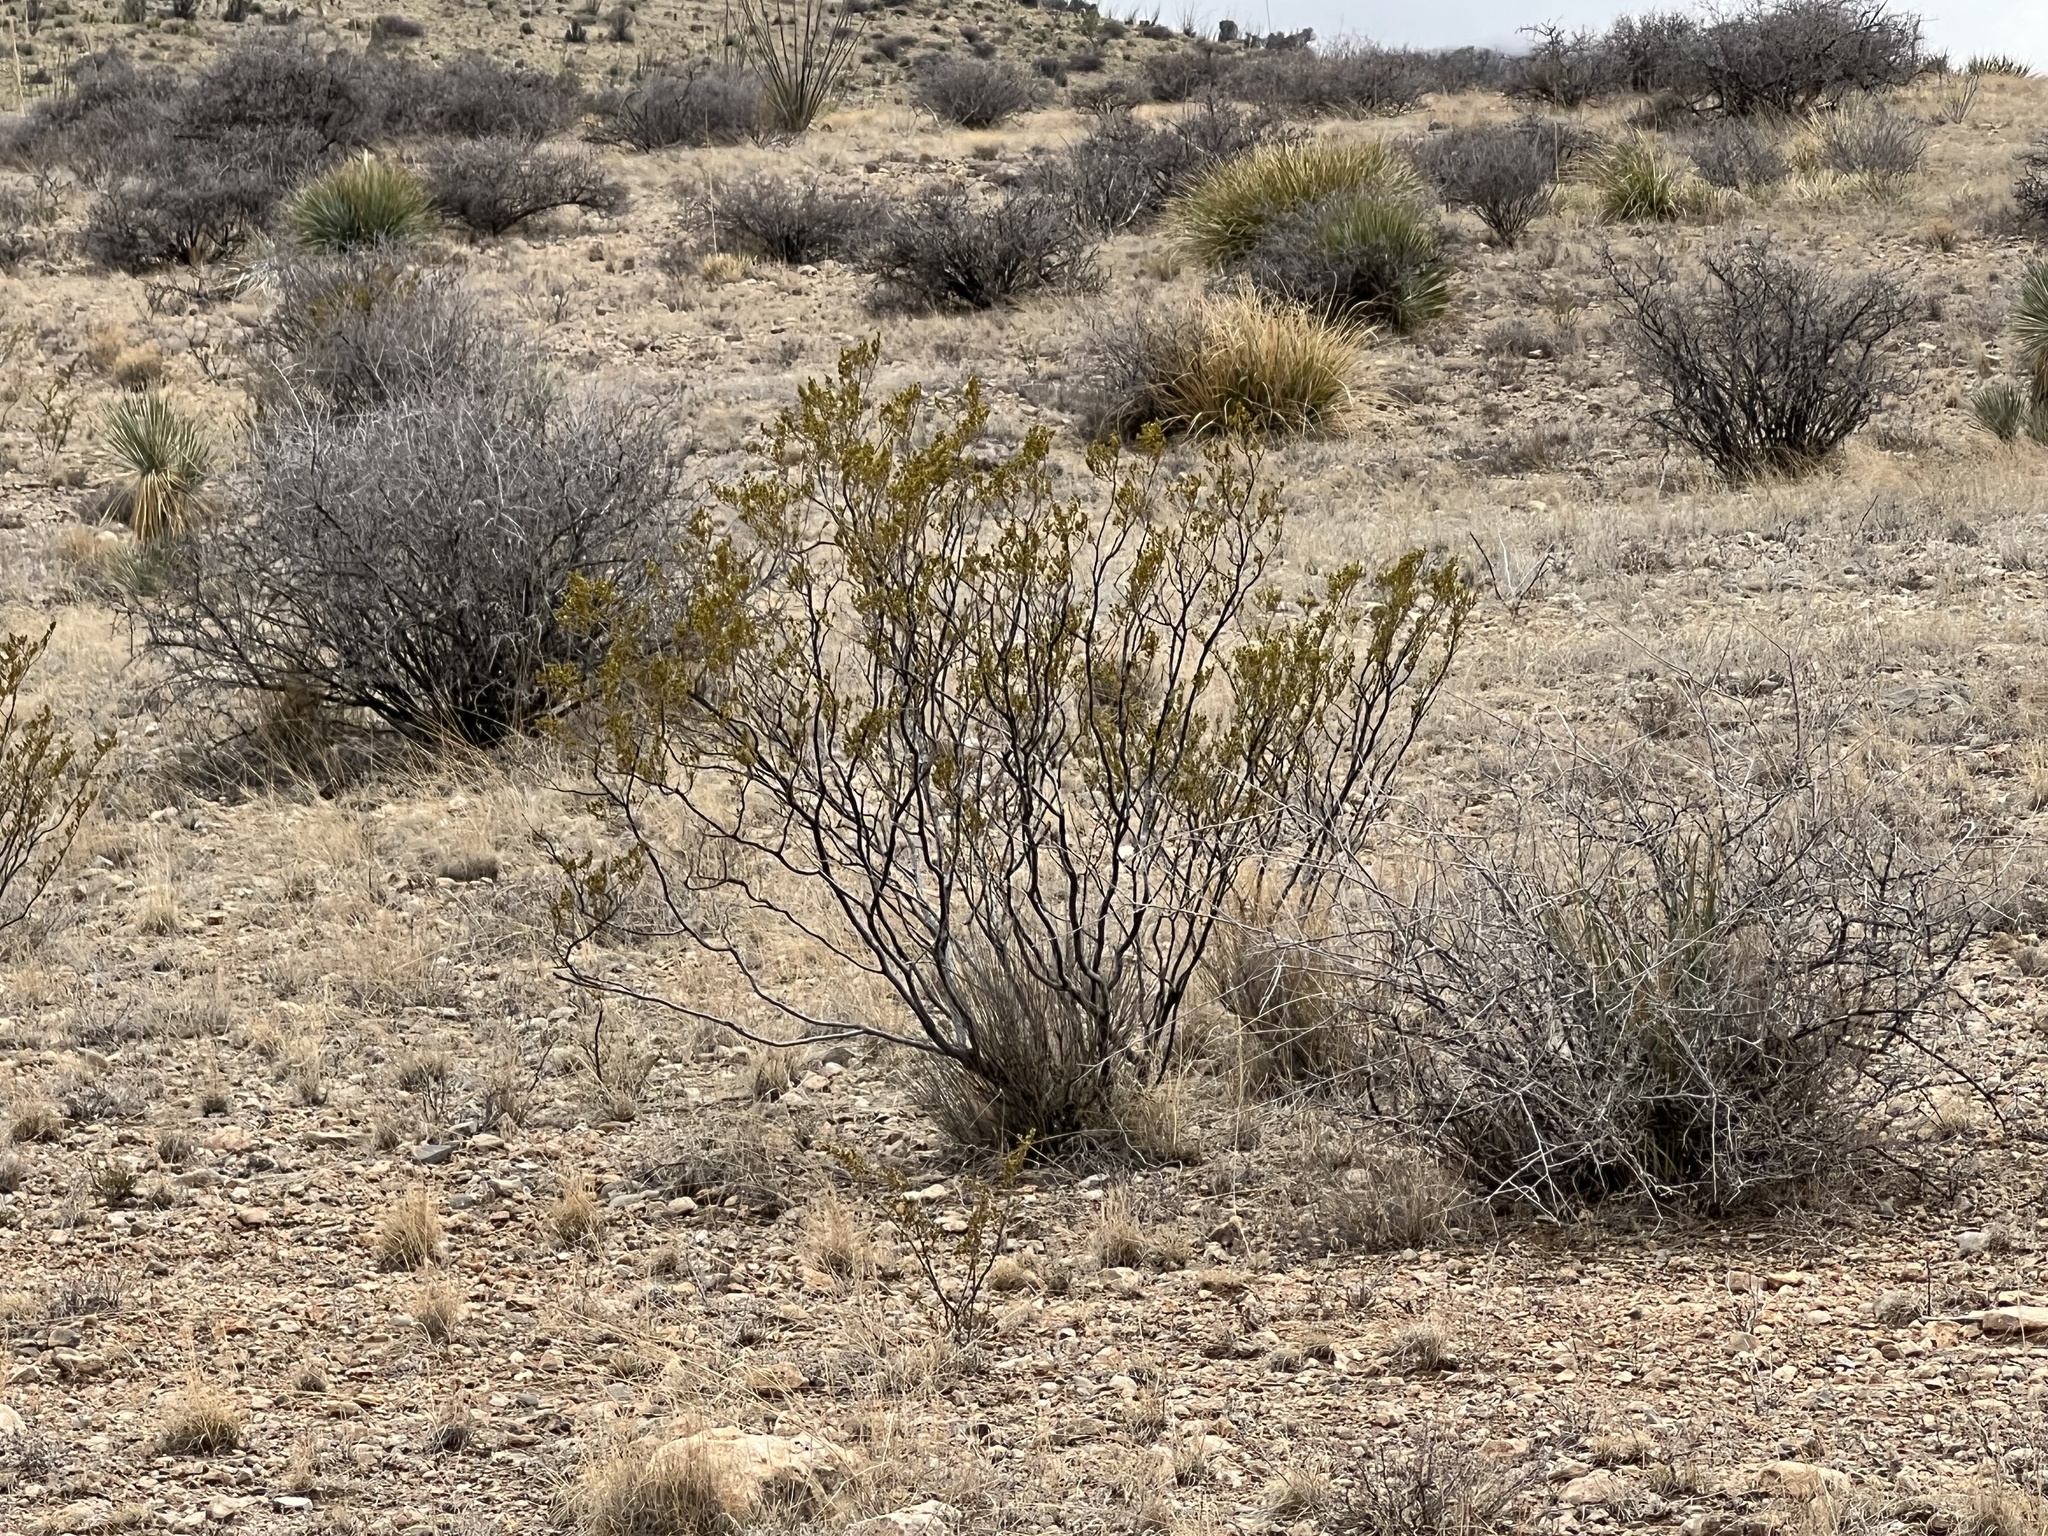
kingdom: Plantae
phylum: Tracheophyta
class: Magnoliopsida
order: Zygophyllales
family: Zygophyllaceae
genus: Larrea
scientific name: Larrea tridentata
